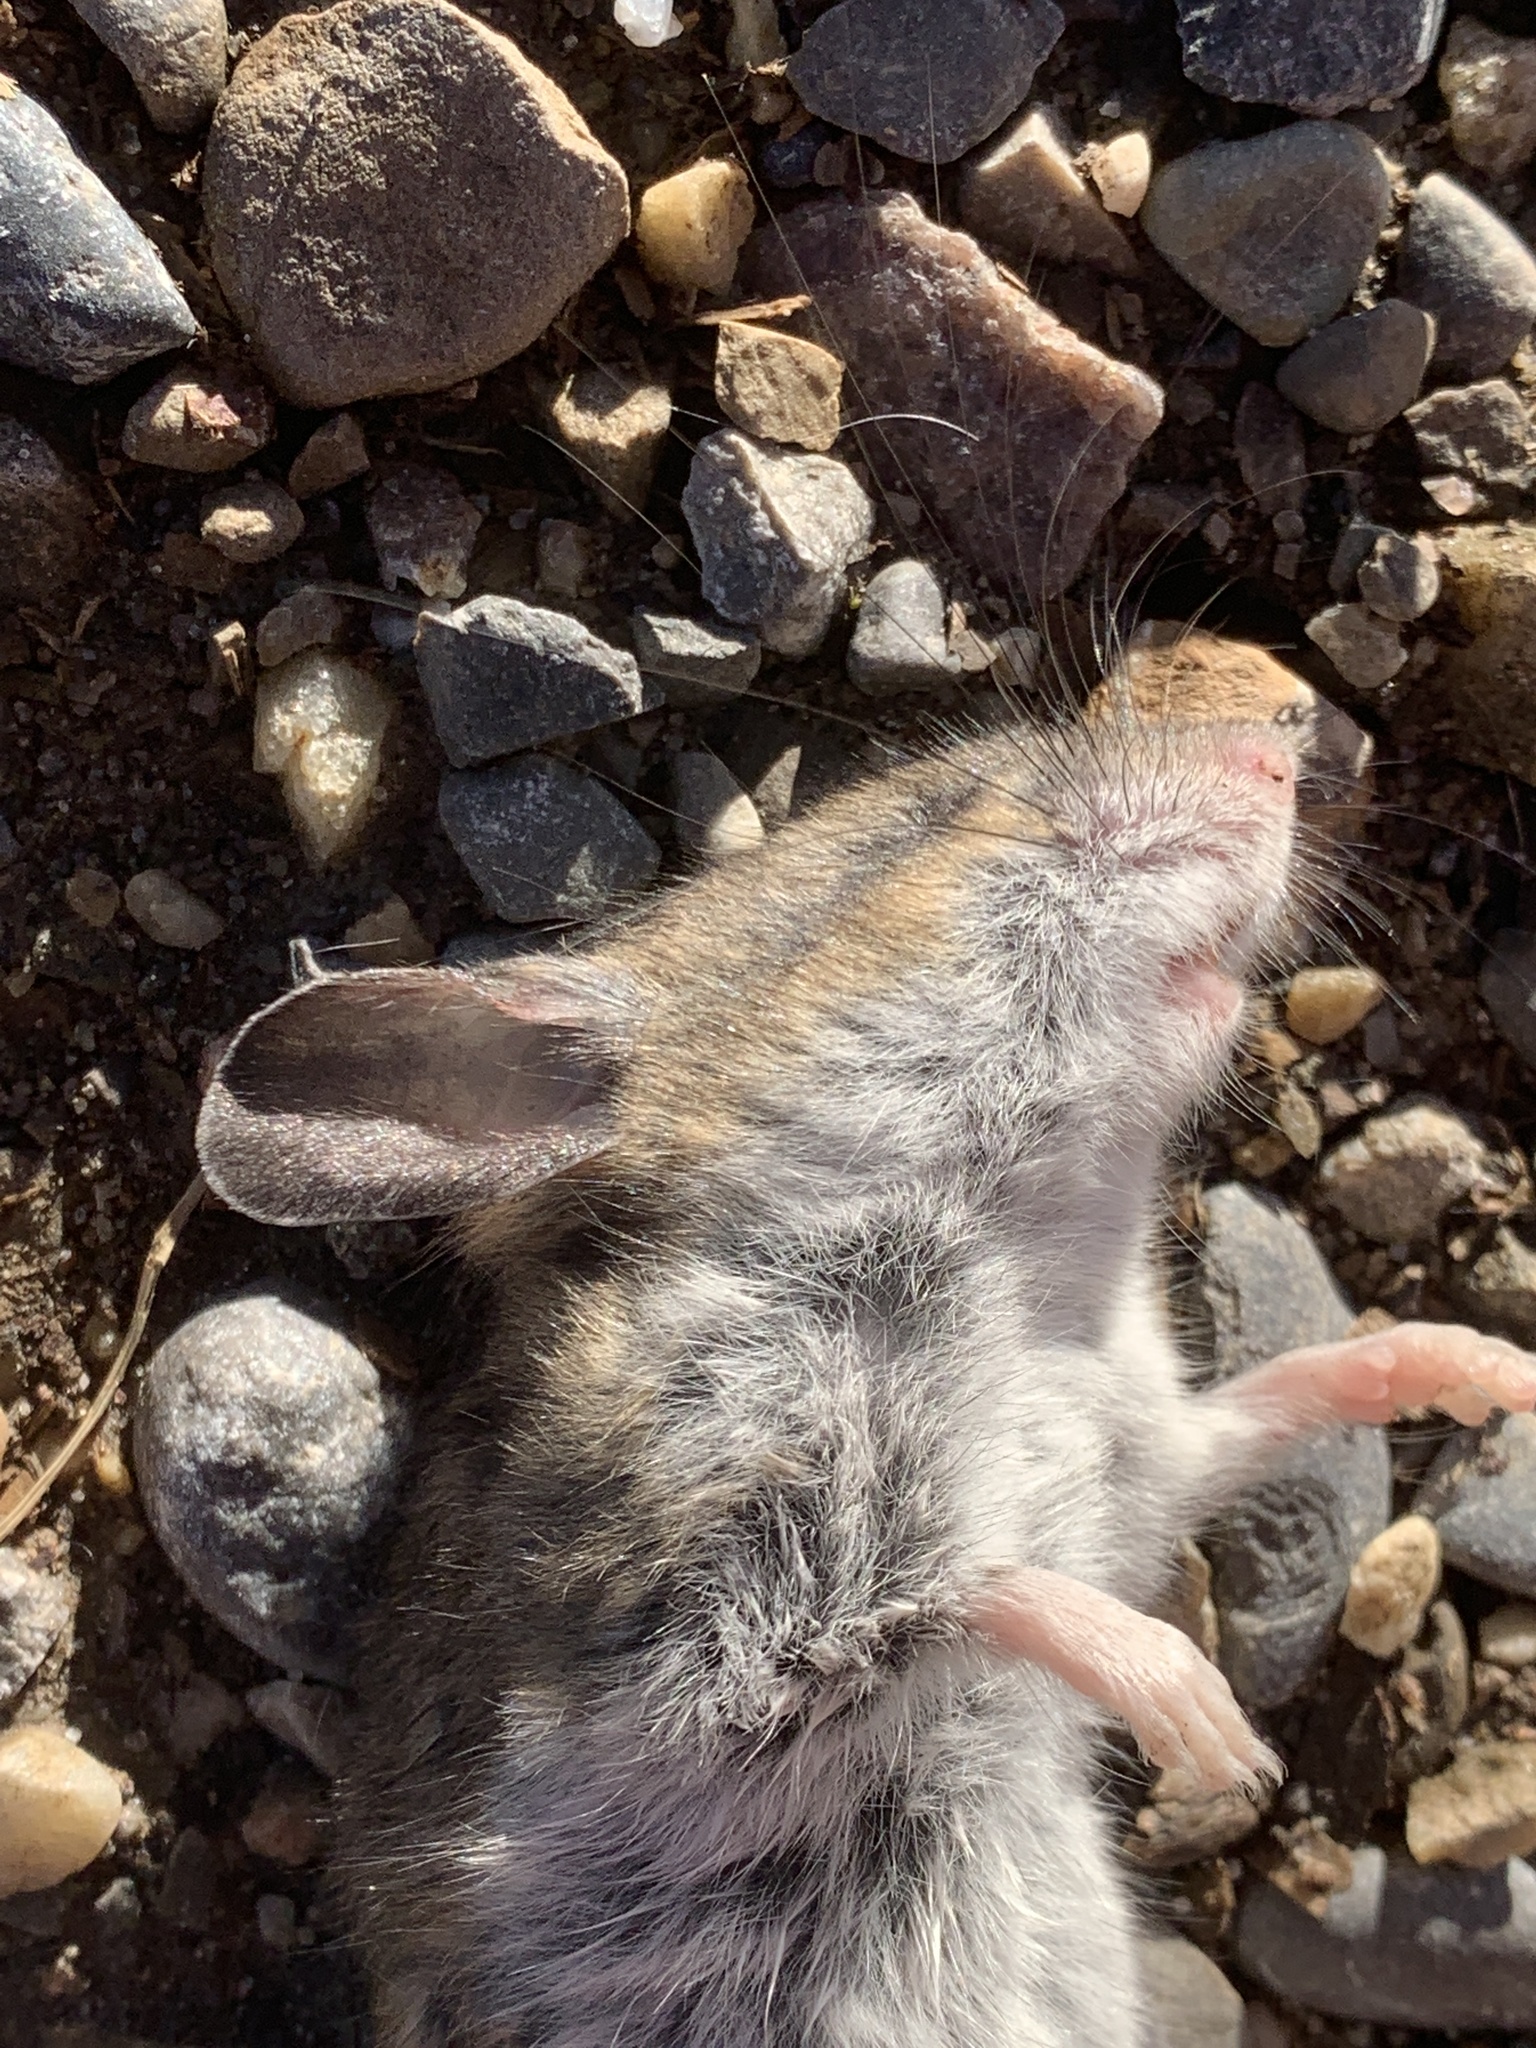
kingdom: Animalia
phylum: Chordata
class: Mammalia
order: Rodentia
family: Cricetidae
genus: Peromyscus
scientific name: Peromyscus maniculatus
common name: Deer mouse
